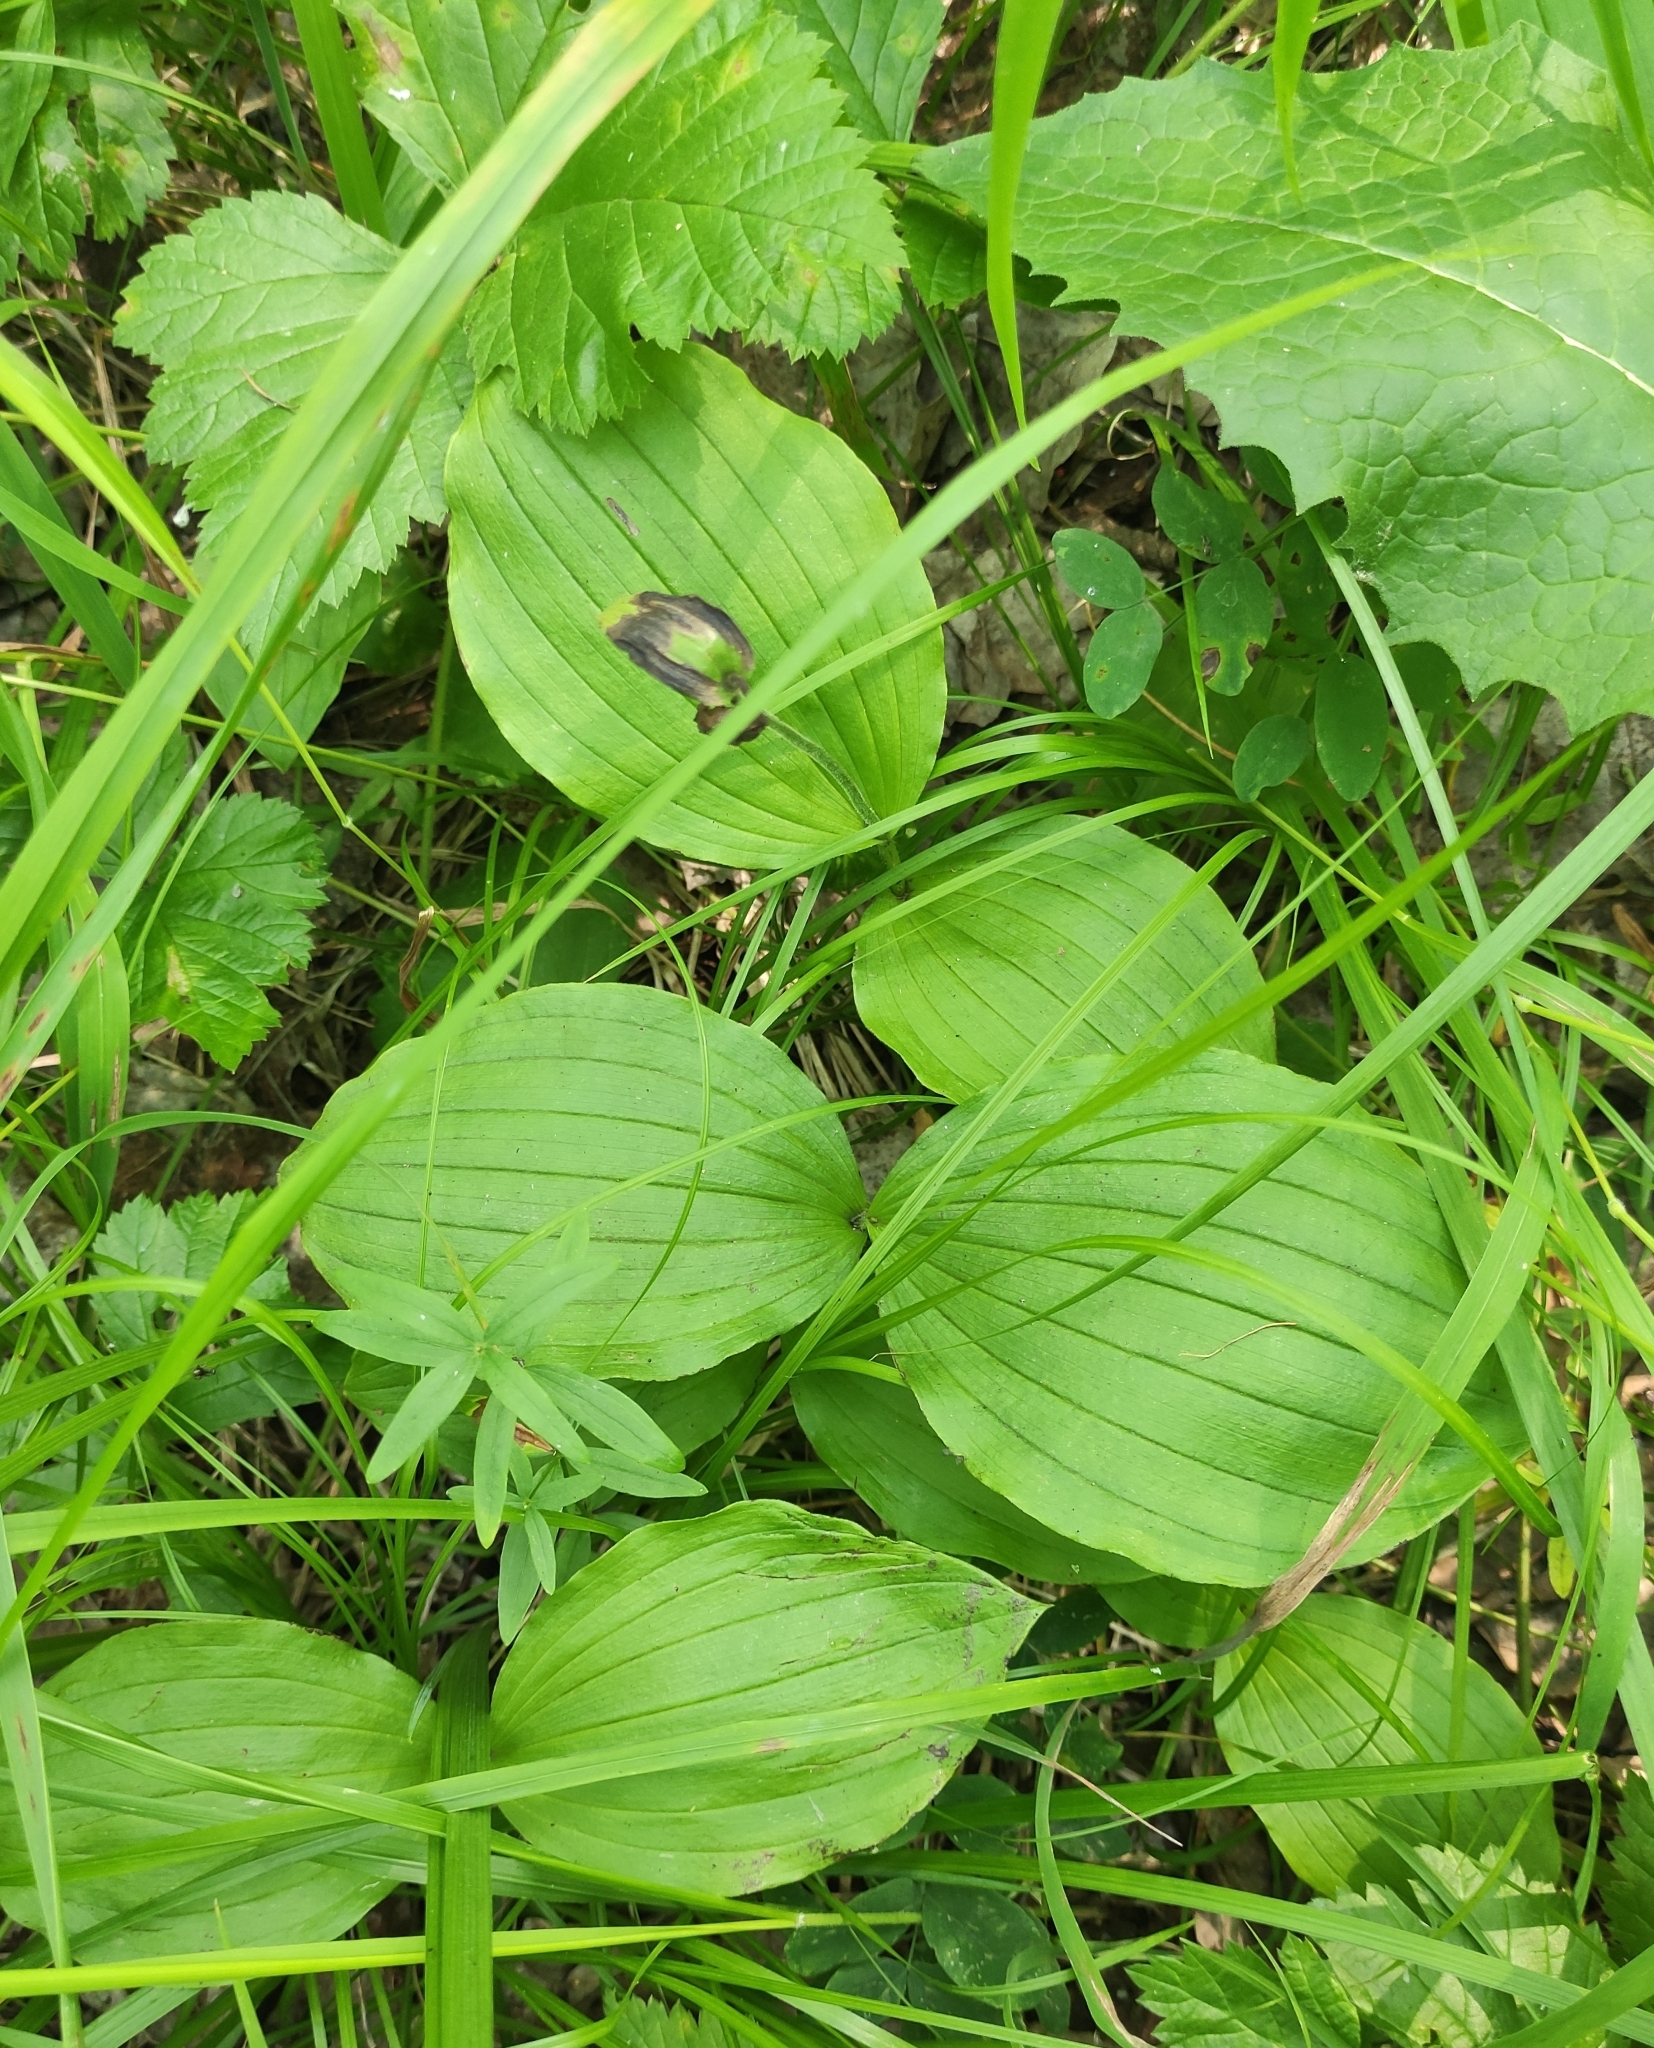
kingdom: Plantae
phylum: Tracheophyta
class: Liliopsida
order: Asparagales
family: Orchidaceae
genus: Cypripedium
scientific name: Cypripedium guttatum
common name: Pink lady slipper
